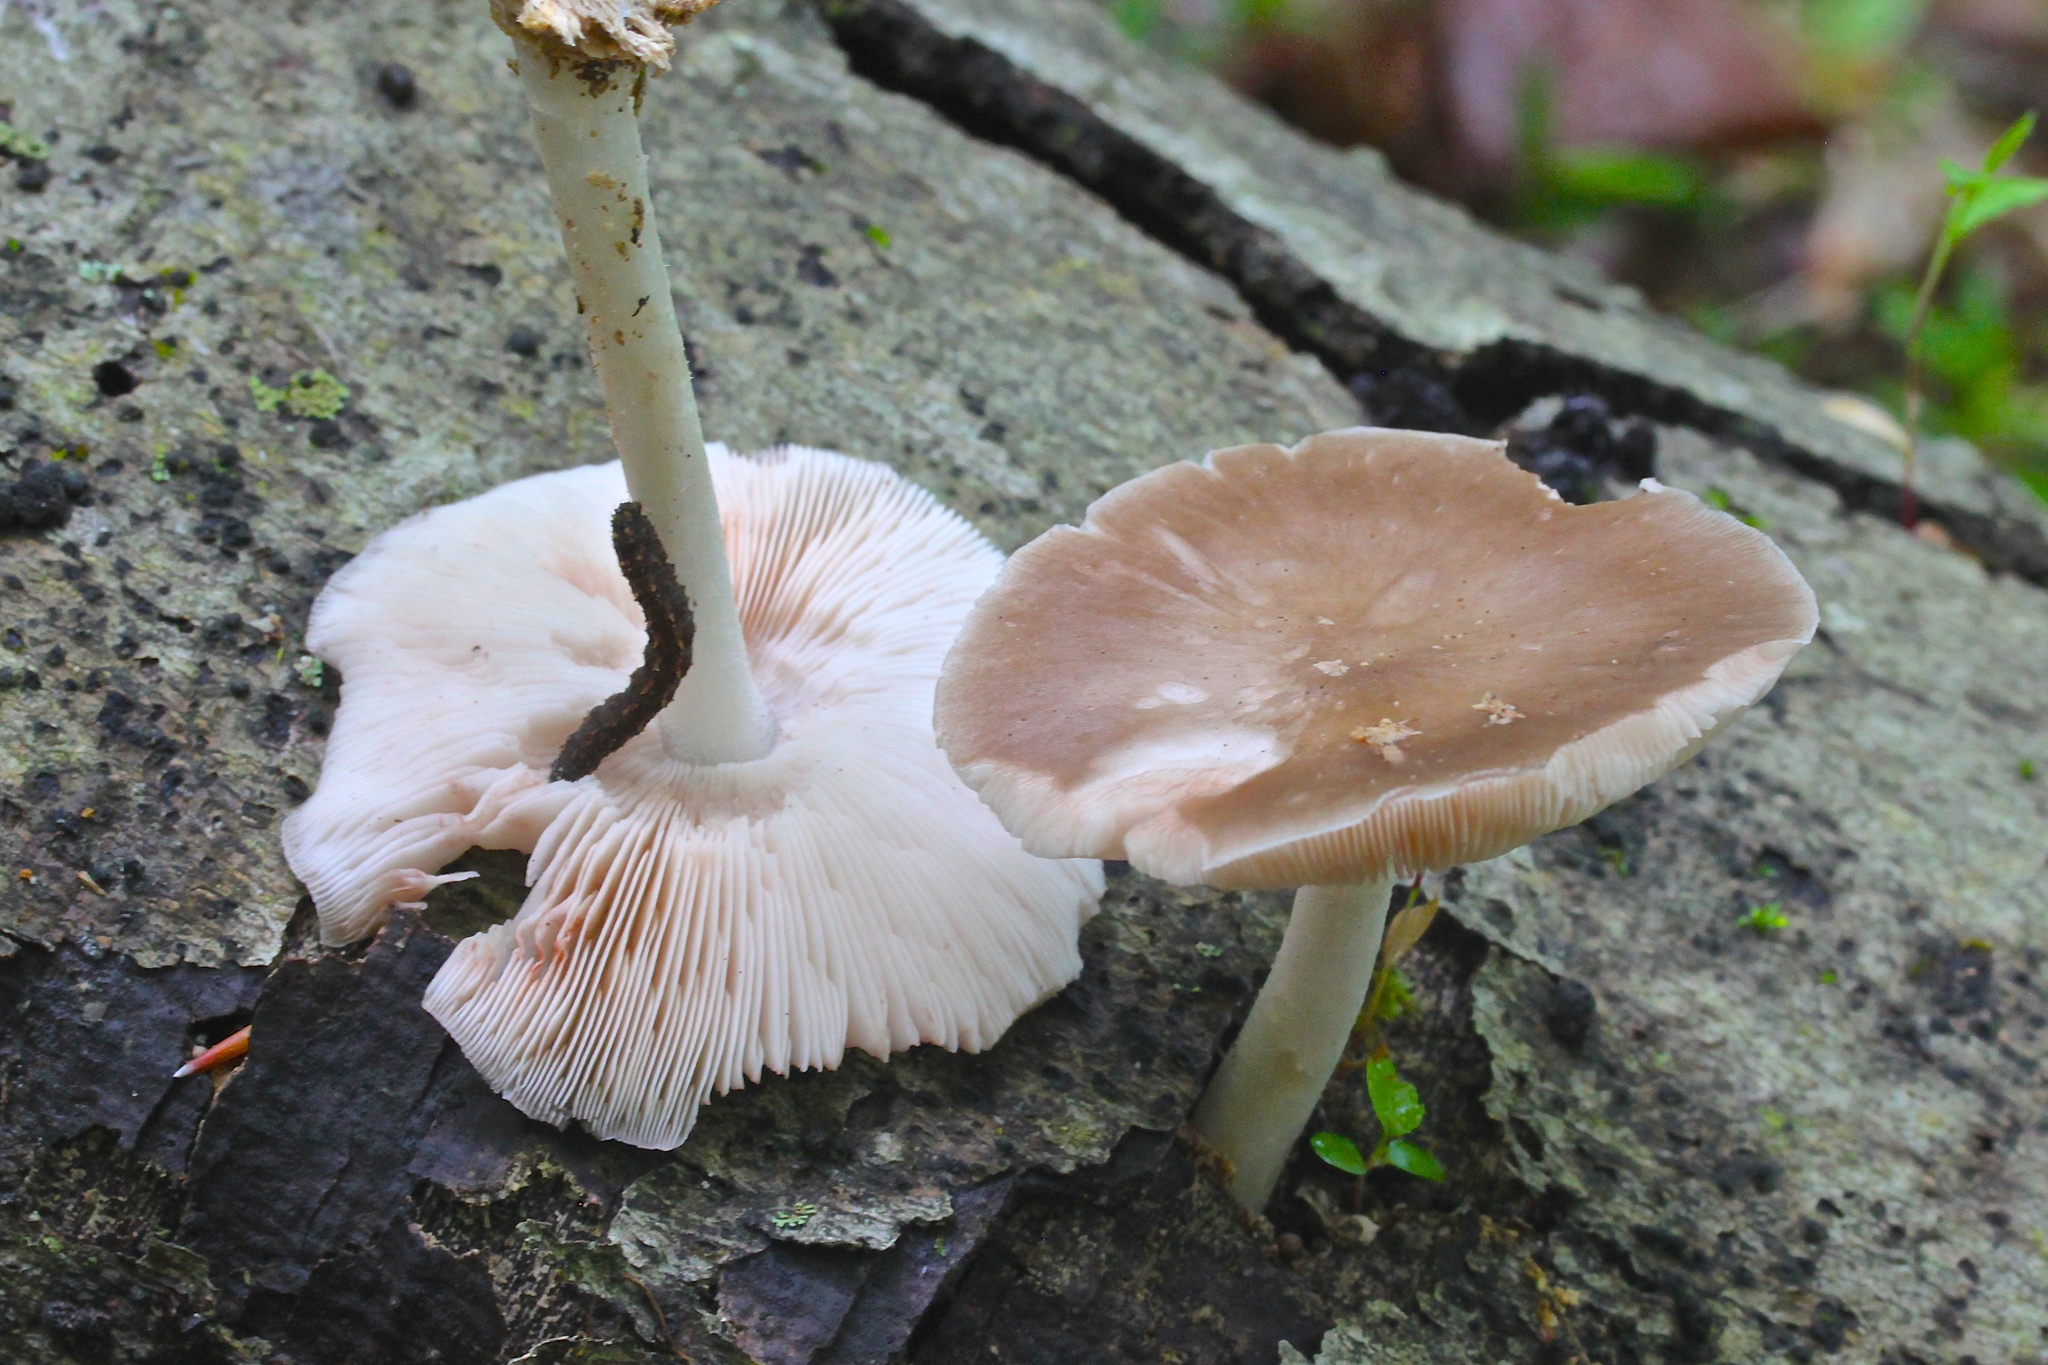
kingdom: Fungi
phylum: Basidiomycota
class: Agaricomycetes
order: Agaricales
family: Pluteaceae
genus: Pluteus
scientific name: Pluteus cervinus
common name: Deer shield
